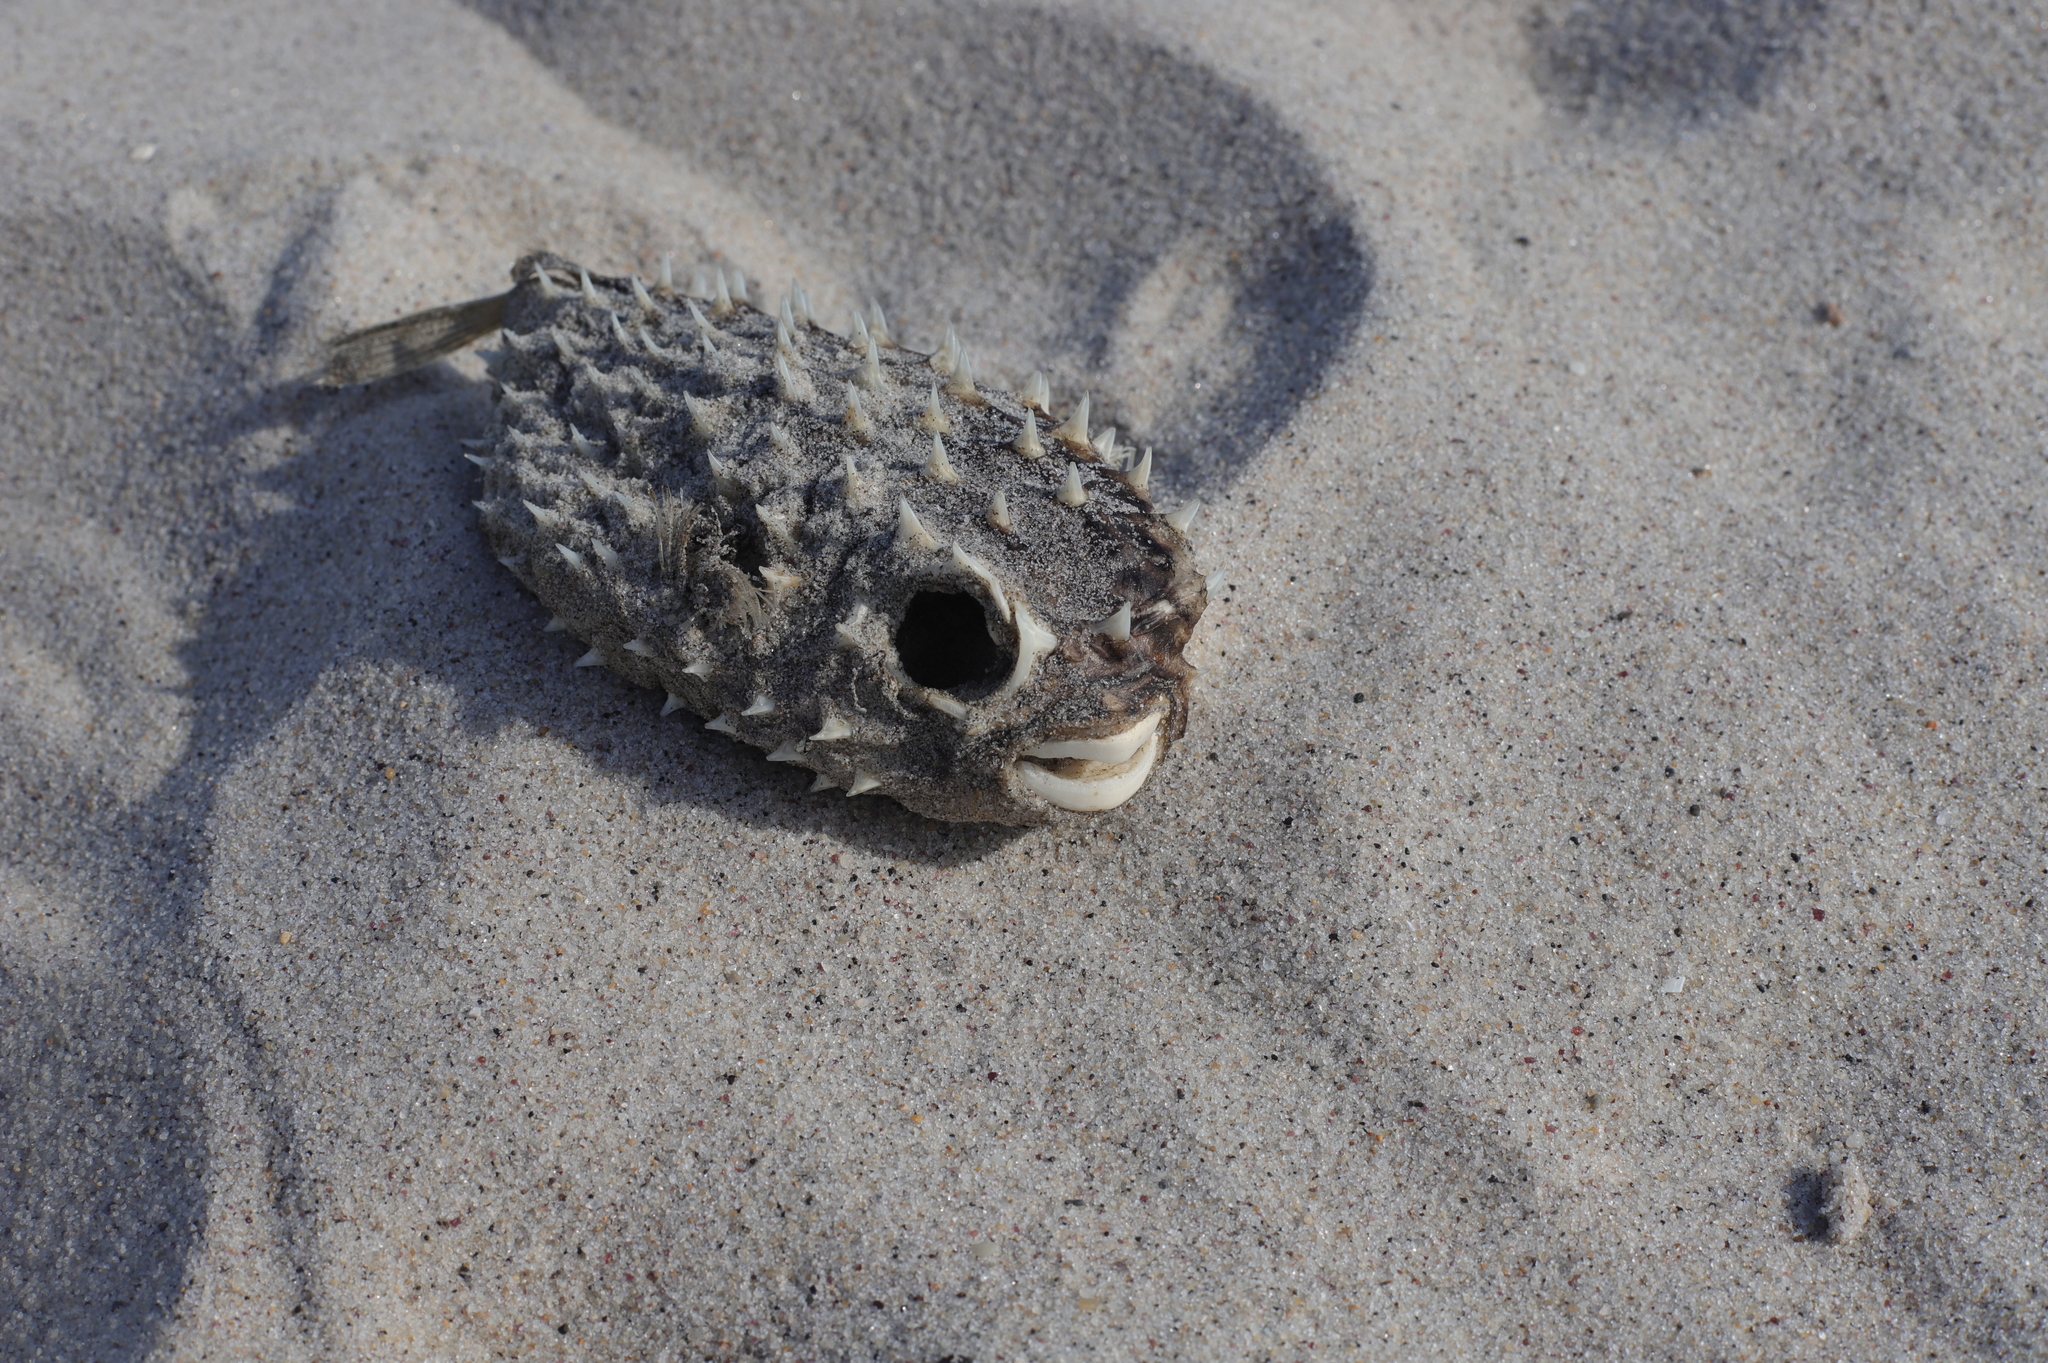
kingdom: Animalia
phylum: Chordata
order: Tetraodontiformes
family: Diodontidae
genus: Chilomycterus
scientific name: Chilomycterus schoepfii
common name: Striped burrfish
